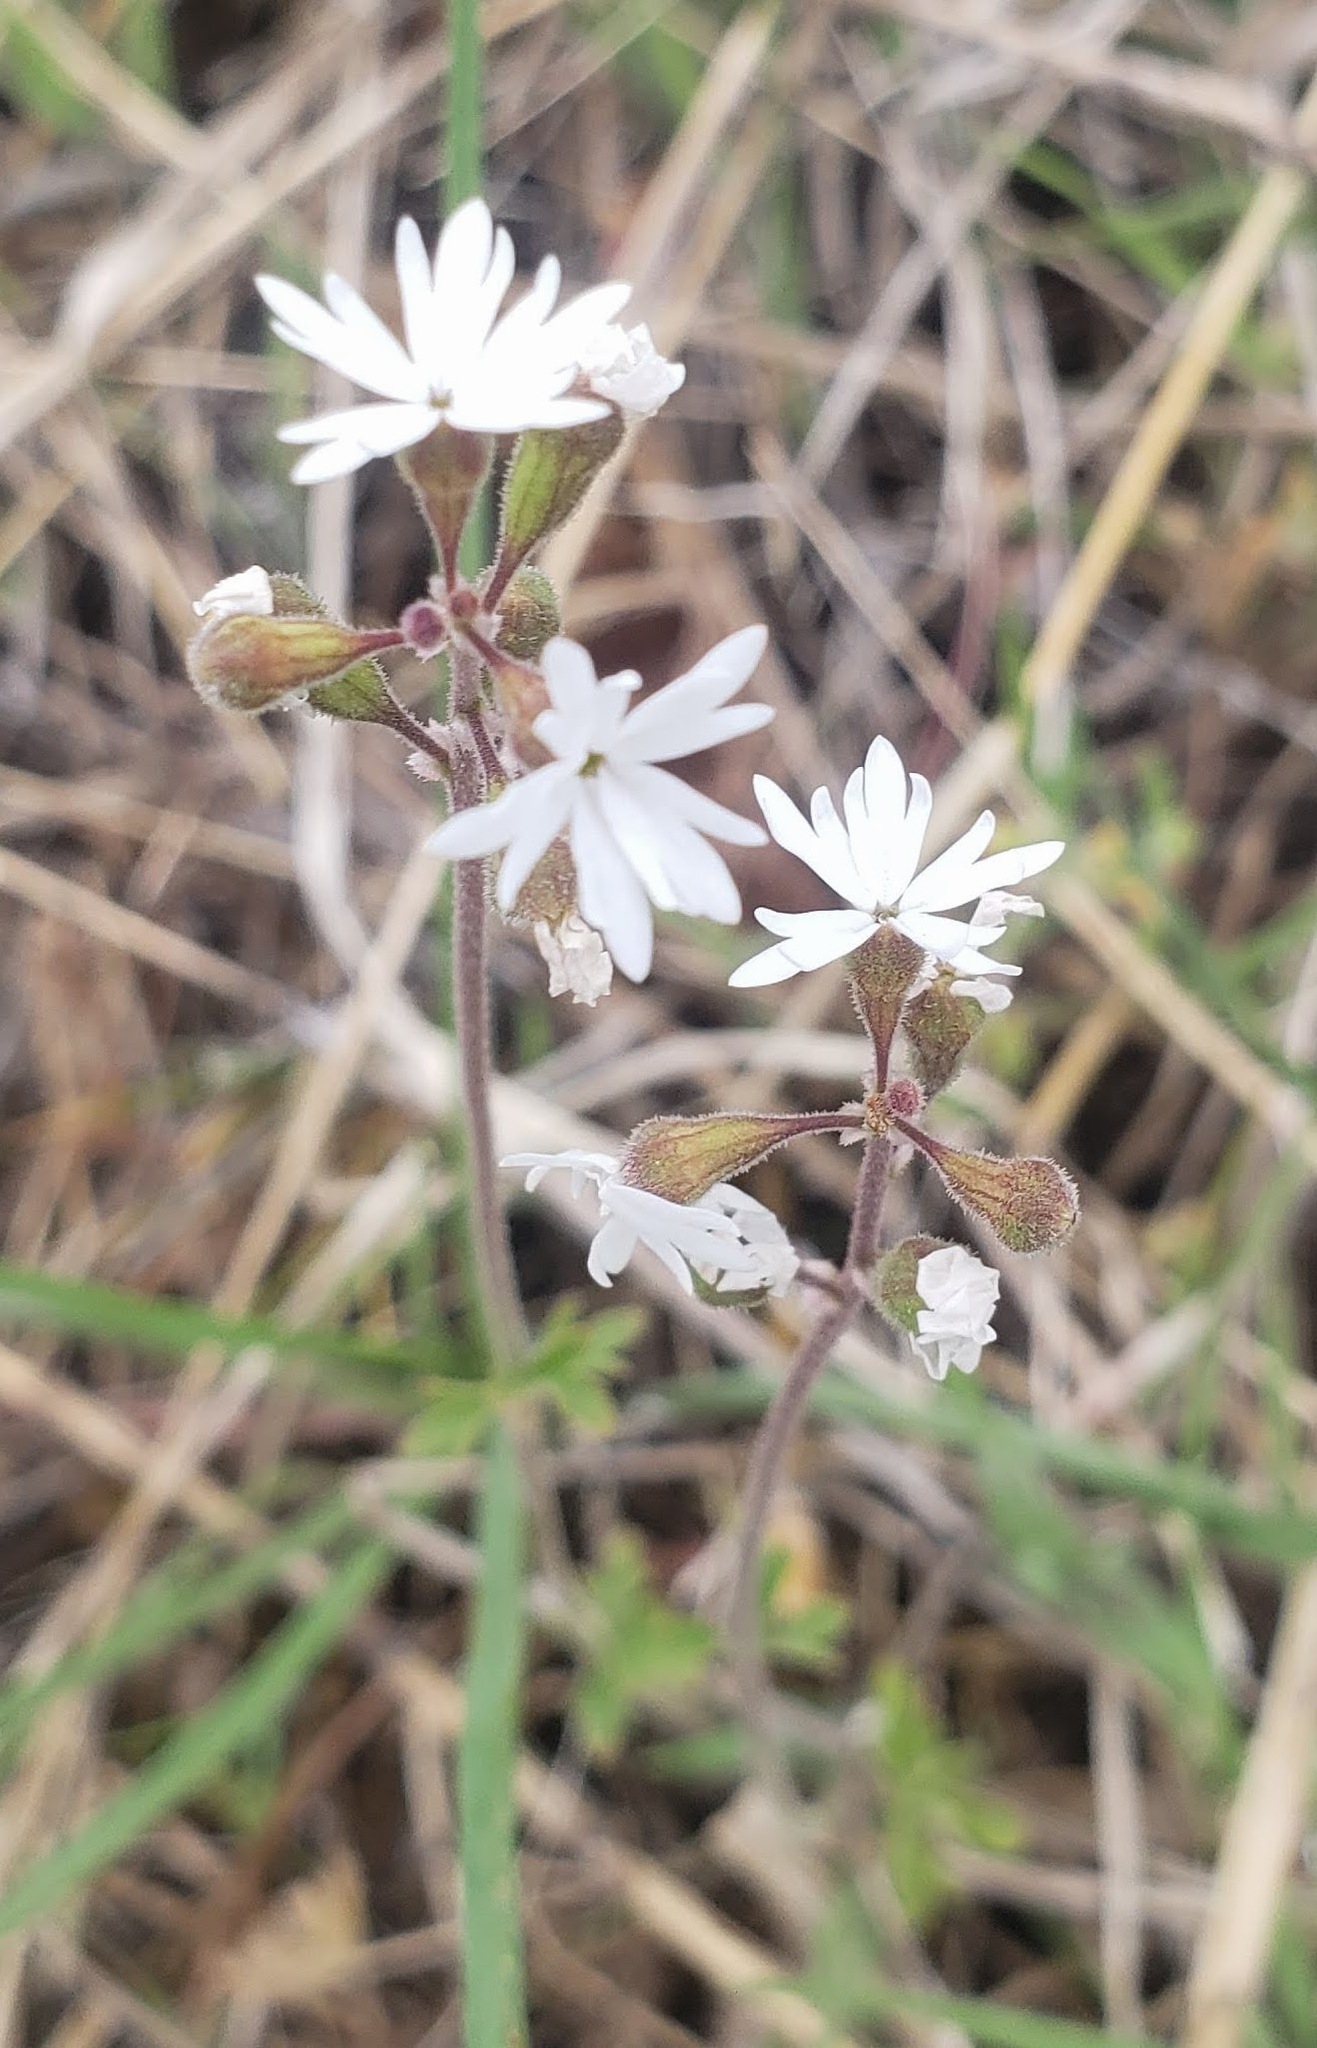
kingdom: Plantae
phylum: Tracheophyta
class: Magnoliopsida
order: Saxifragales
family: Saxifragaceae
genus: Lithophragma
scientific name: Lithophragma parviflorum
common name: Small-flowered fringe-cup
